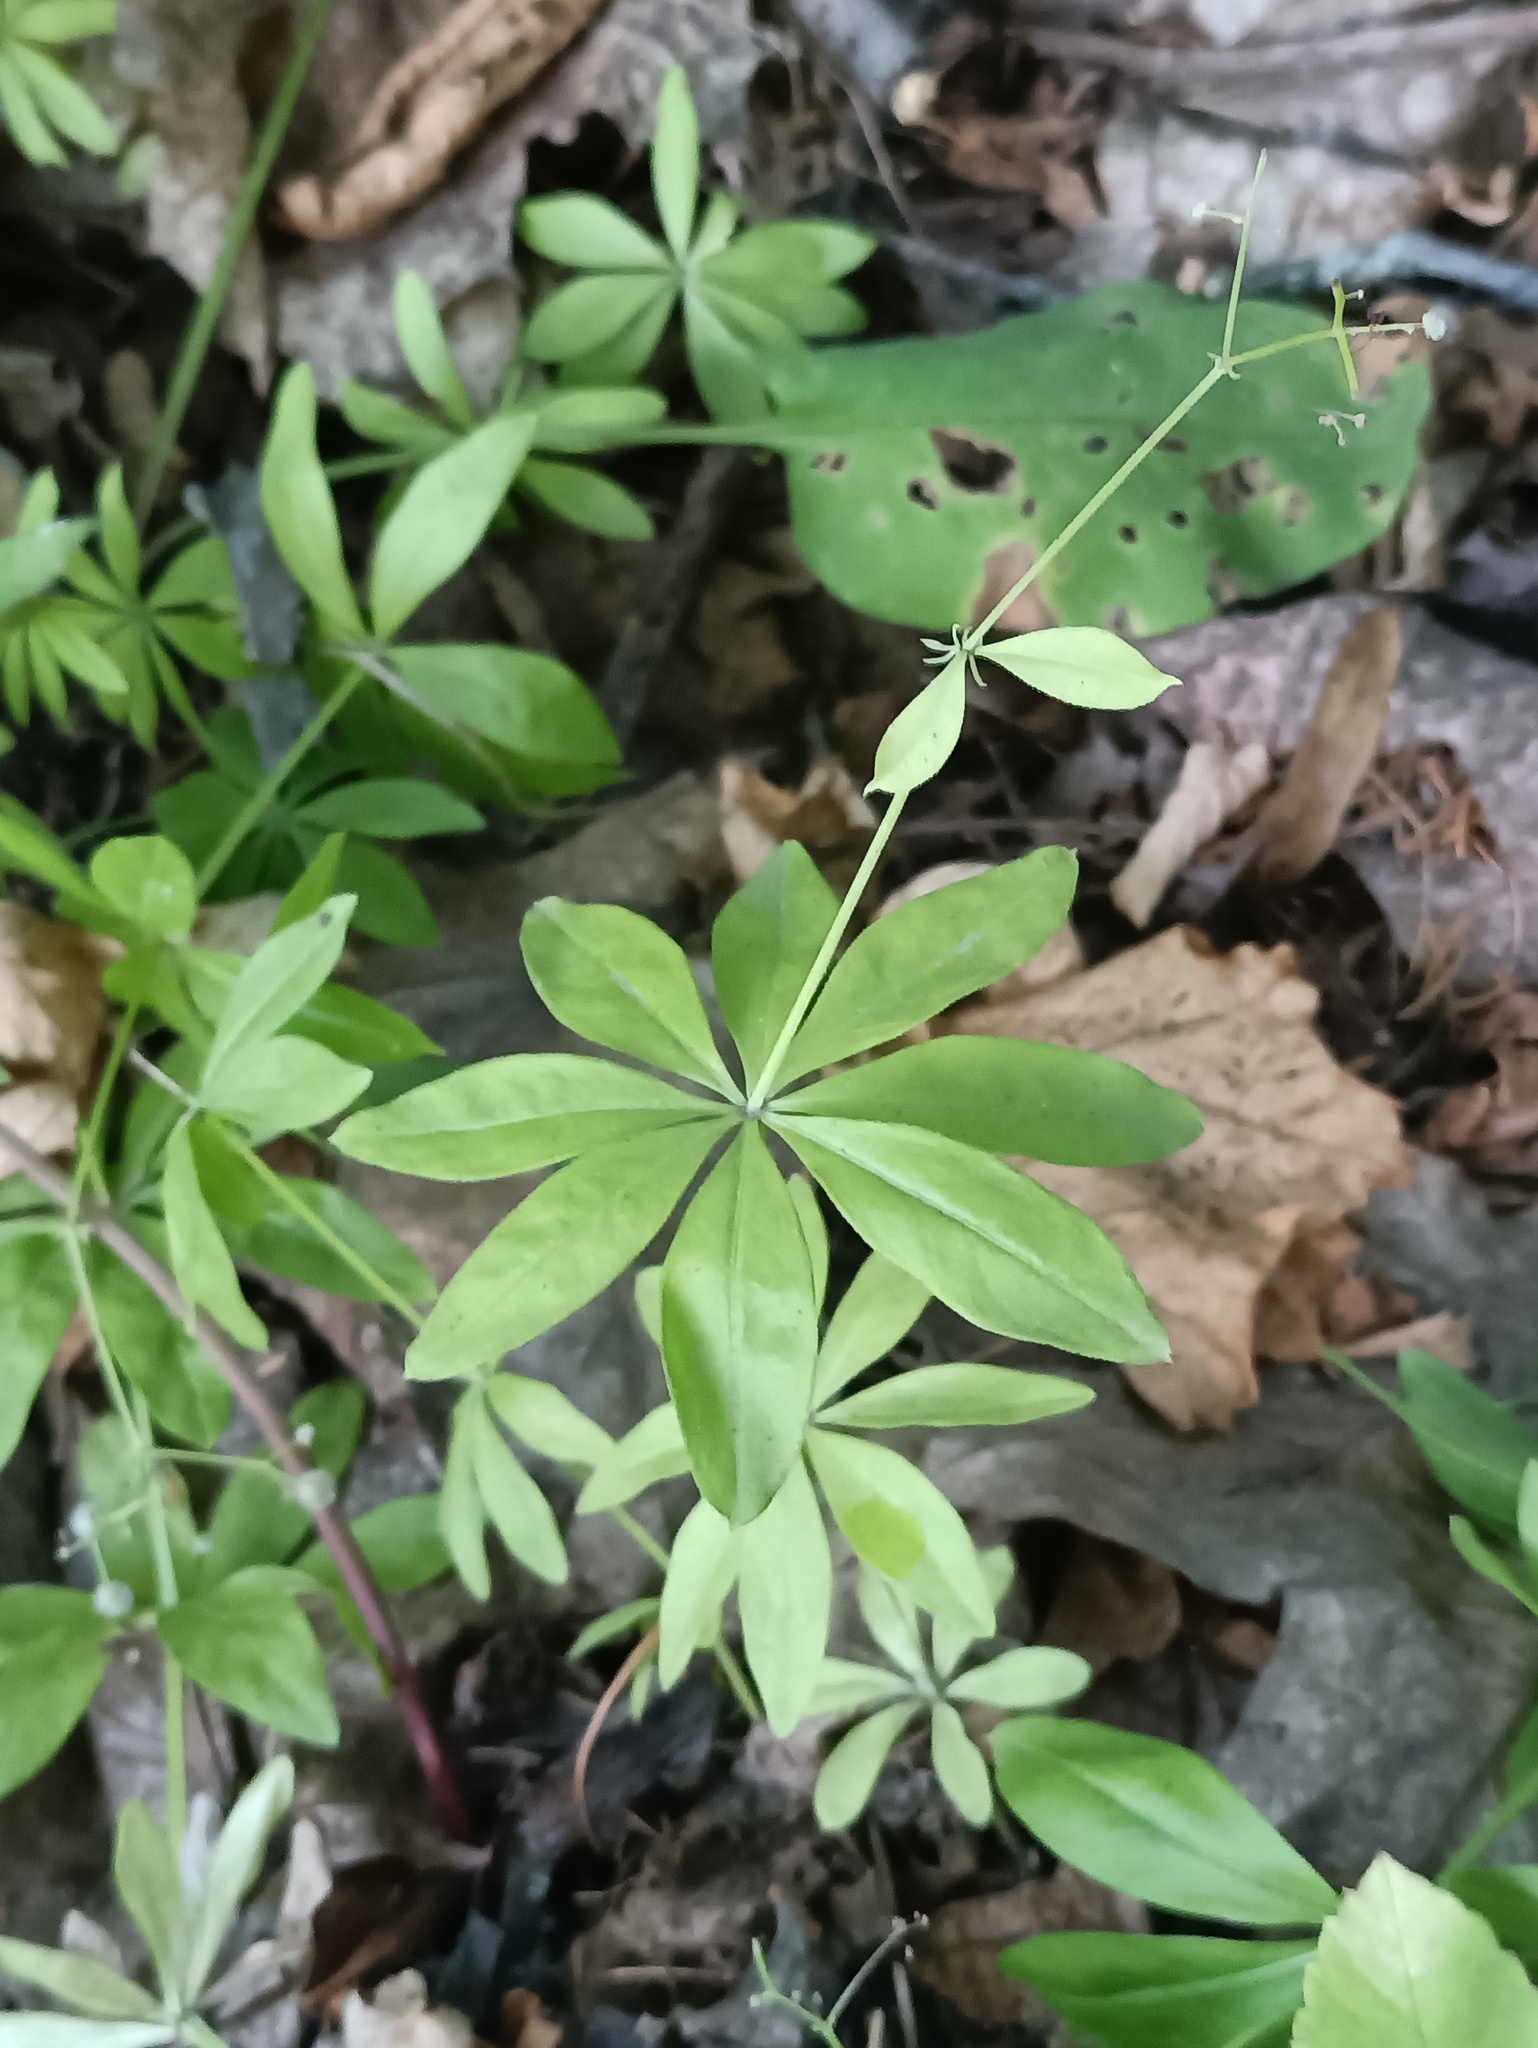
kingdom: Plantae
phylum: Tracheophyta
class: Magnoliopsida
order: Gentianales
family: Rubiaceae
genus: Galium
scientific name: Galium odoratum
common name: Sweet woodruff
